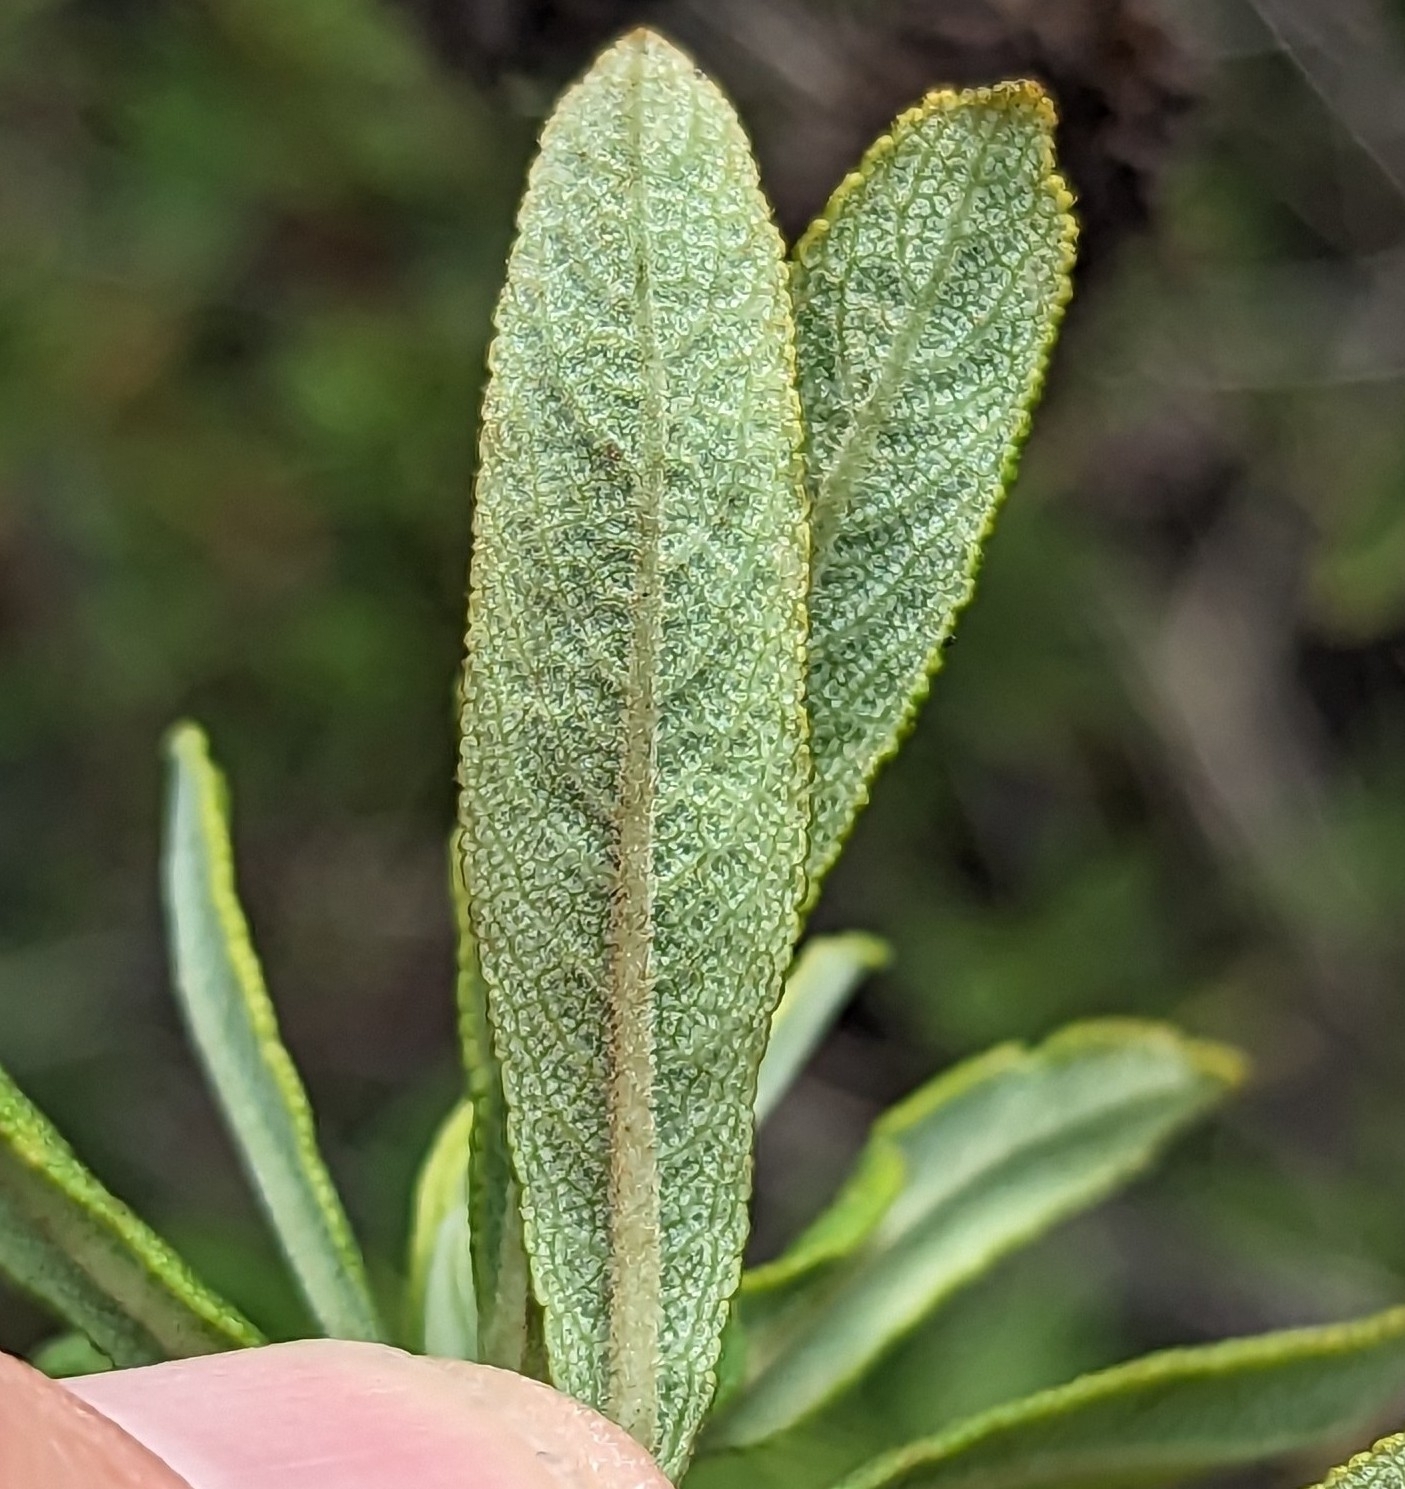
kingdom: Plantae
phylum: Tracheophyta
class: Magnoliopsida
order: Lamiales
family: Lamiaceae
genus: Salvia
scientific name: Salvia mellifera
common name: Black sage
